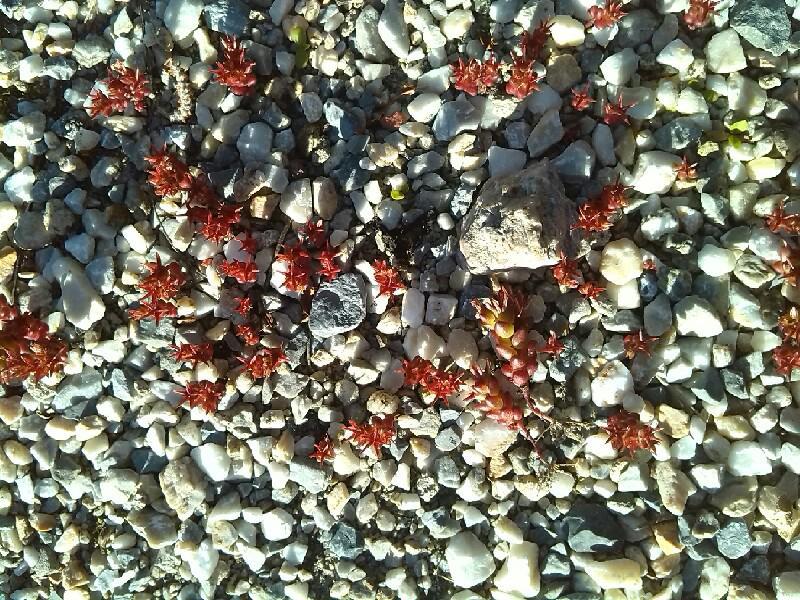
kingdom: Plantae
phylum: Tracheophyta
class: Magnoliopsida
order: Saxifragales
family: Crassulaceae
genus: Sedum
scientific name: Sedum cespitosum
